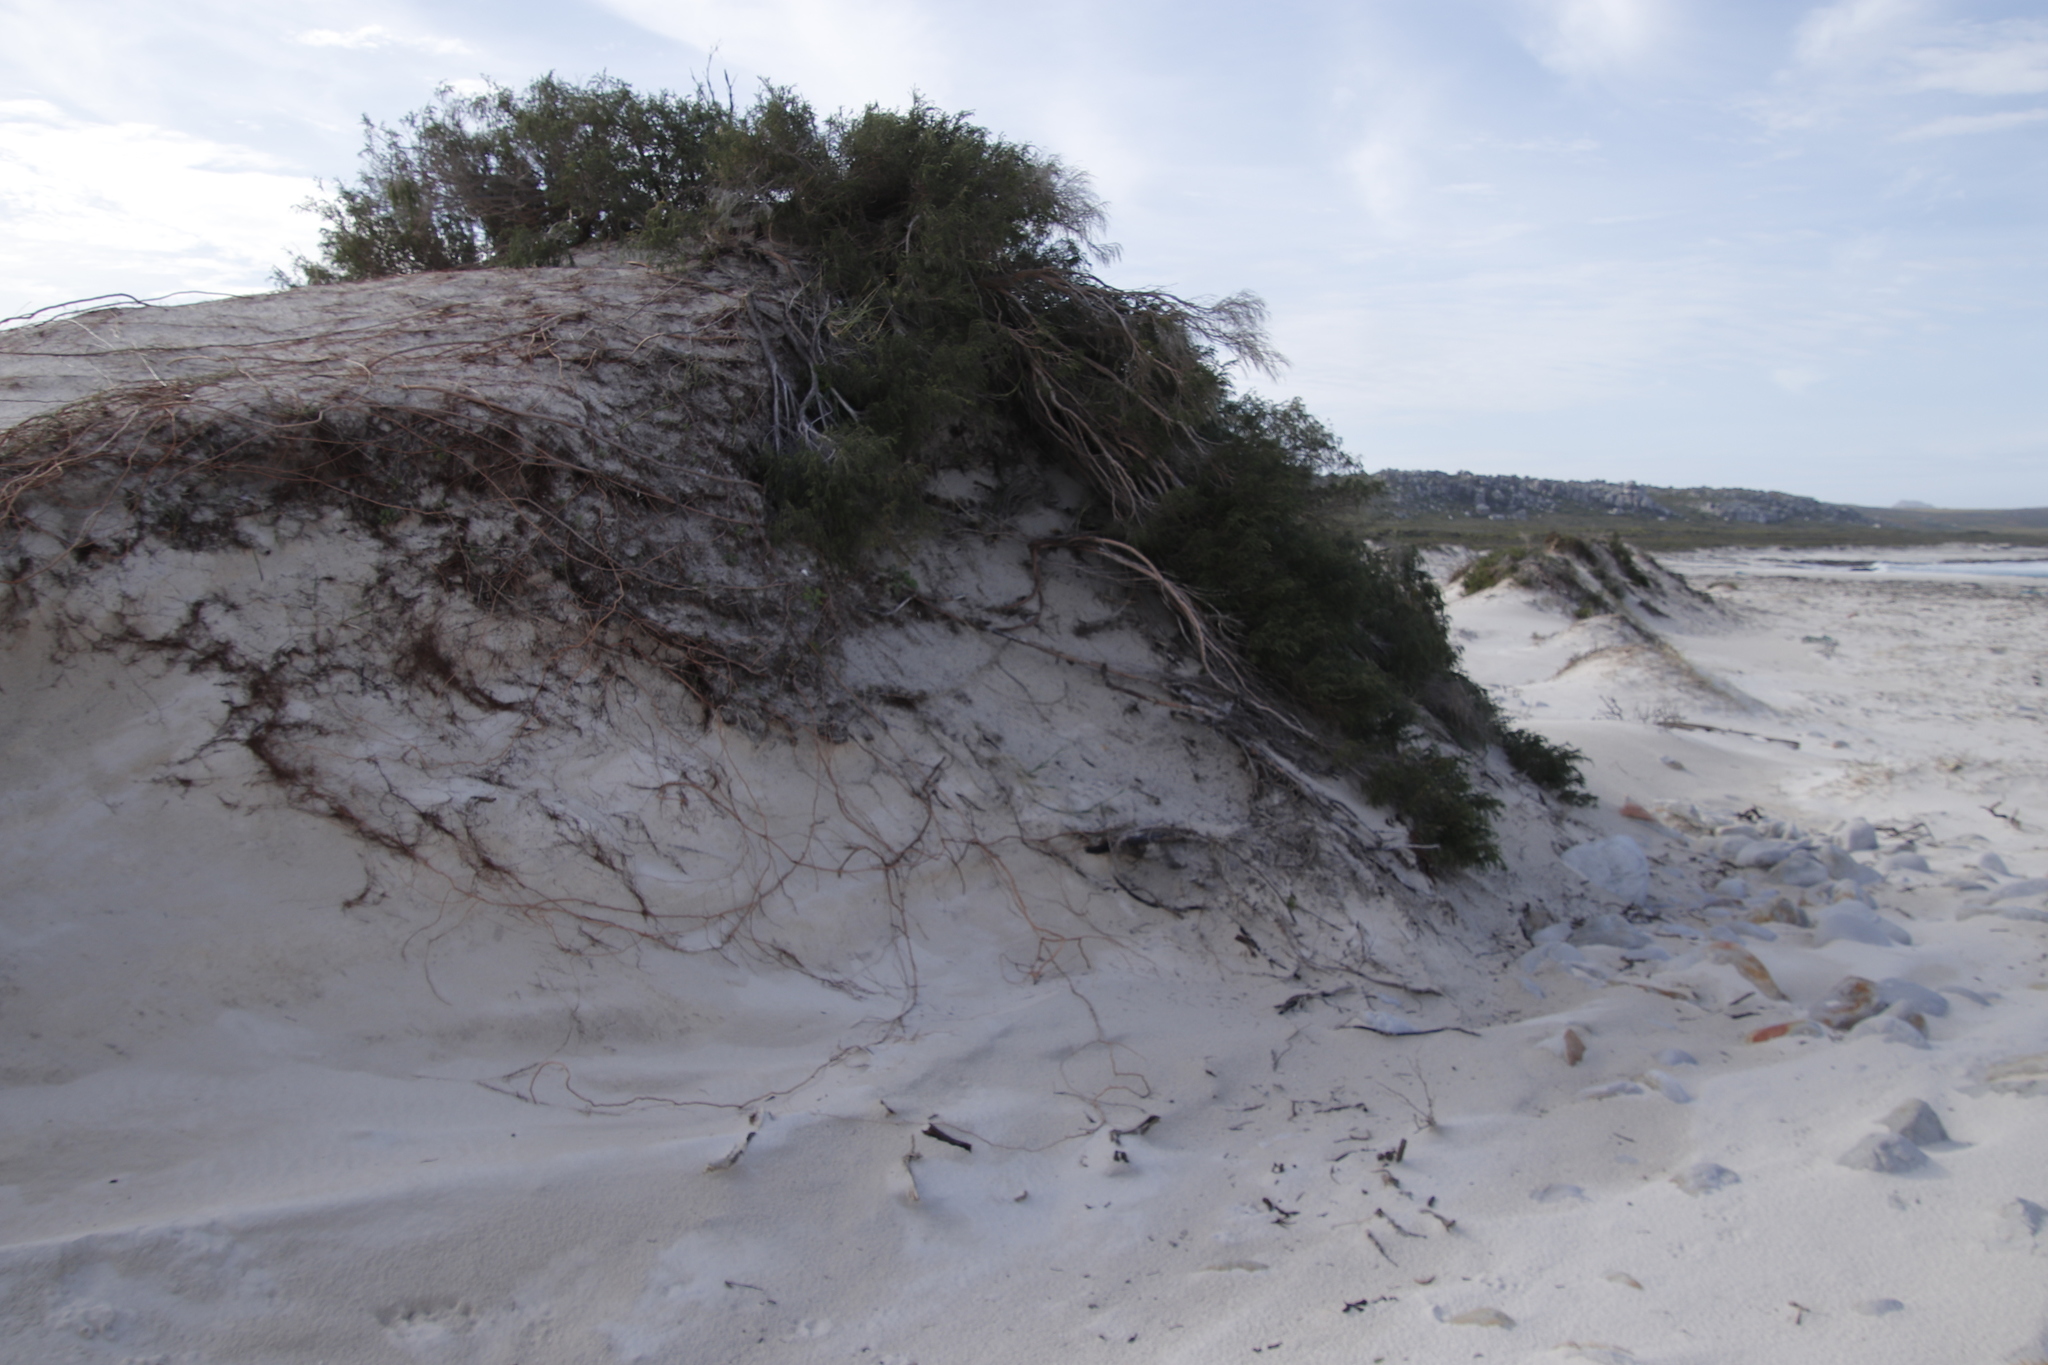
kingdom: Plantae
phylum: Tracheophyta
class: Magnoliopsida
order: Malvales
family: Thymelaeaceae
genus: Passerina
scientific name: Passerina ericoides
